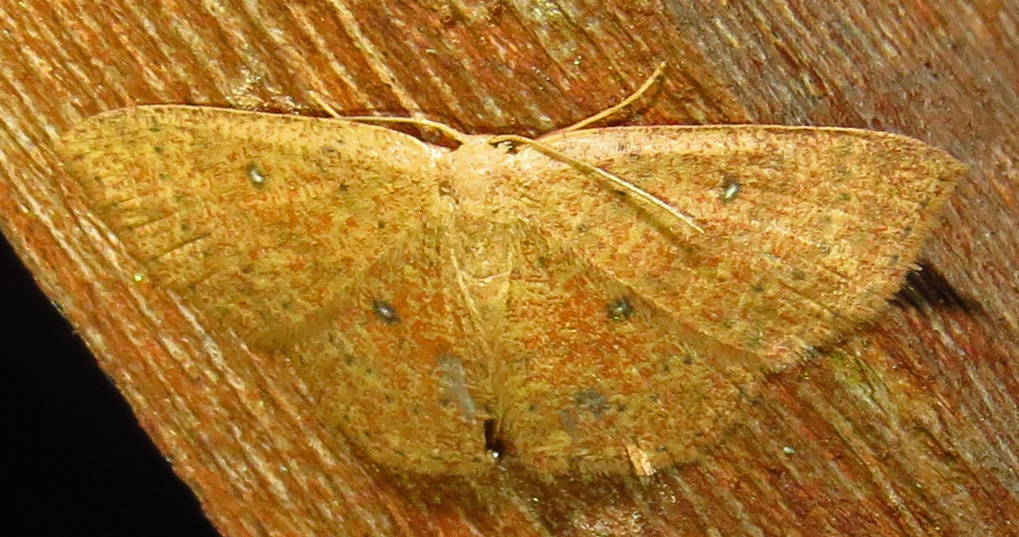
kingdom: Animalia
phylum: Arthropoda
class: Insecta
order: Lepidoptera
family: Geometridae
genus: Cyclophora
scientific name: Cyclophora packardi
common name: Packard's wave
